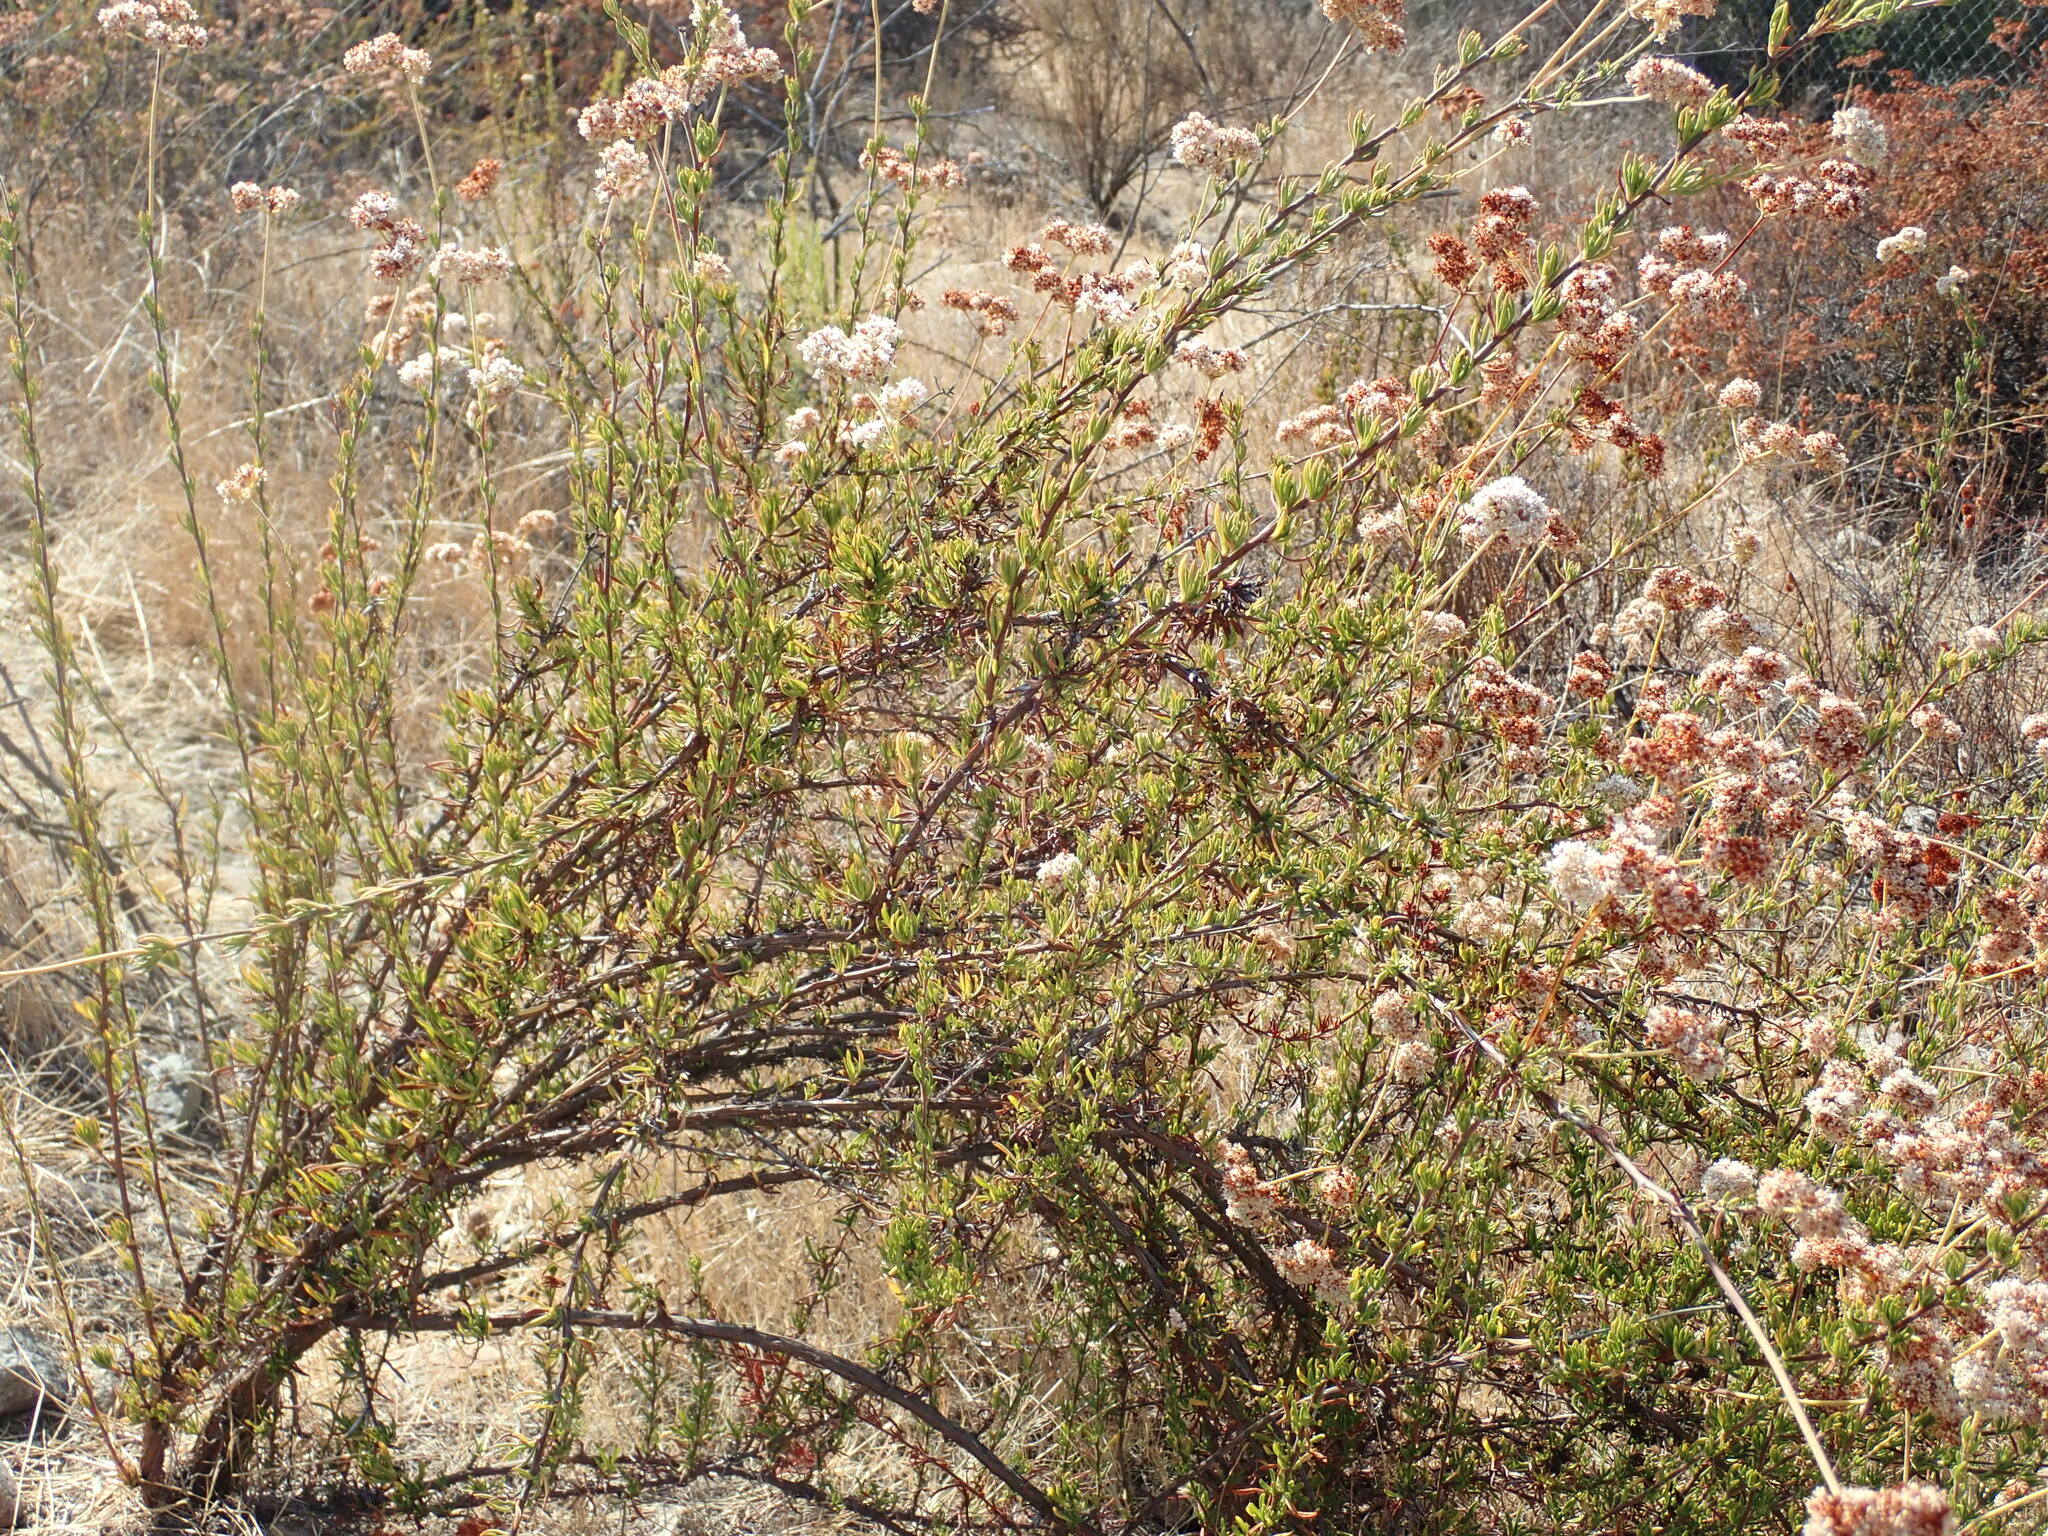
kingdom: Plantae
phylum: Tracheophyta
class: Magnoliopsida
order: Caryophyllales
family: Polygonaceae
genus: Eriogonum
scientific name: Eriogonum fasciculatum
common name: California wild buckwheat
